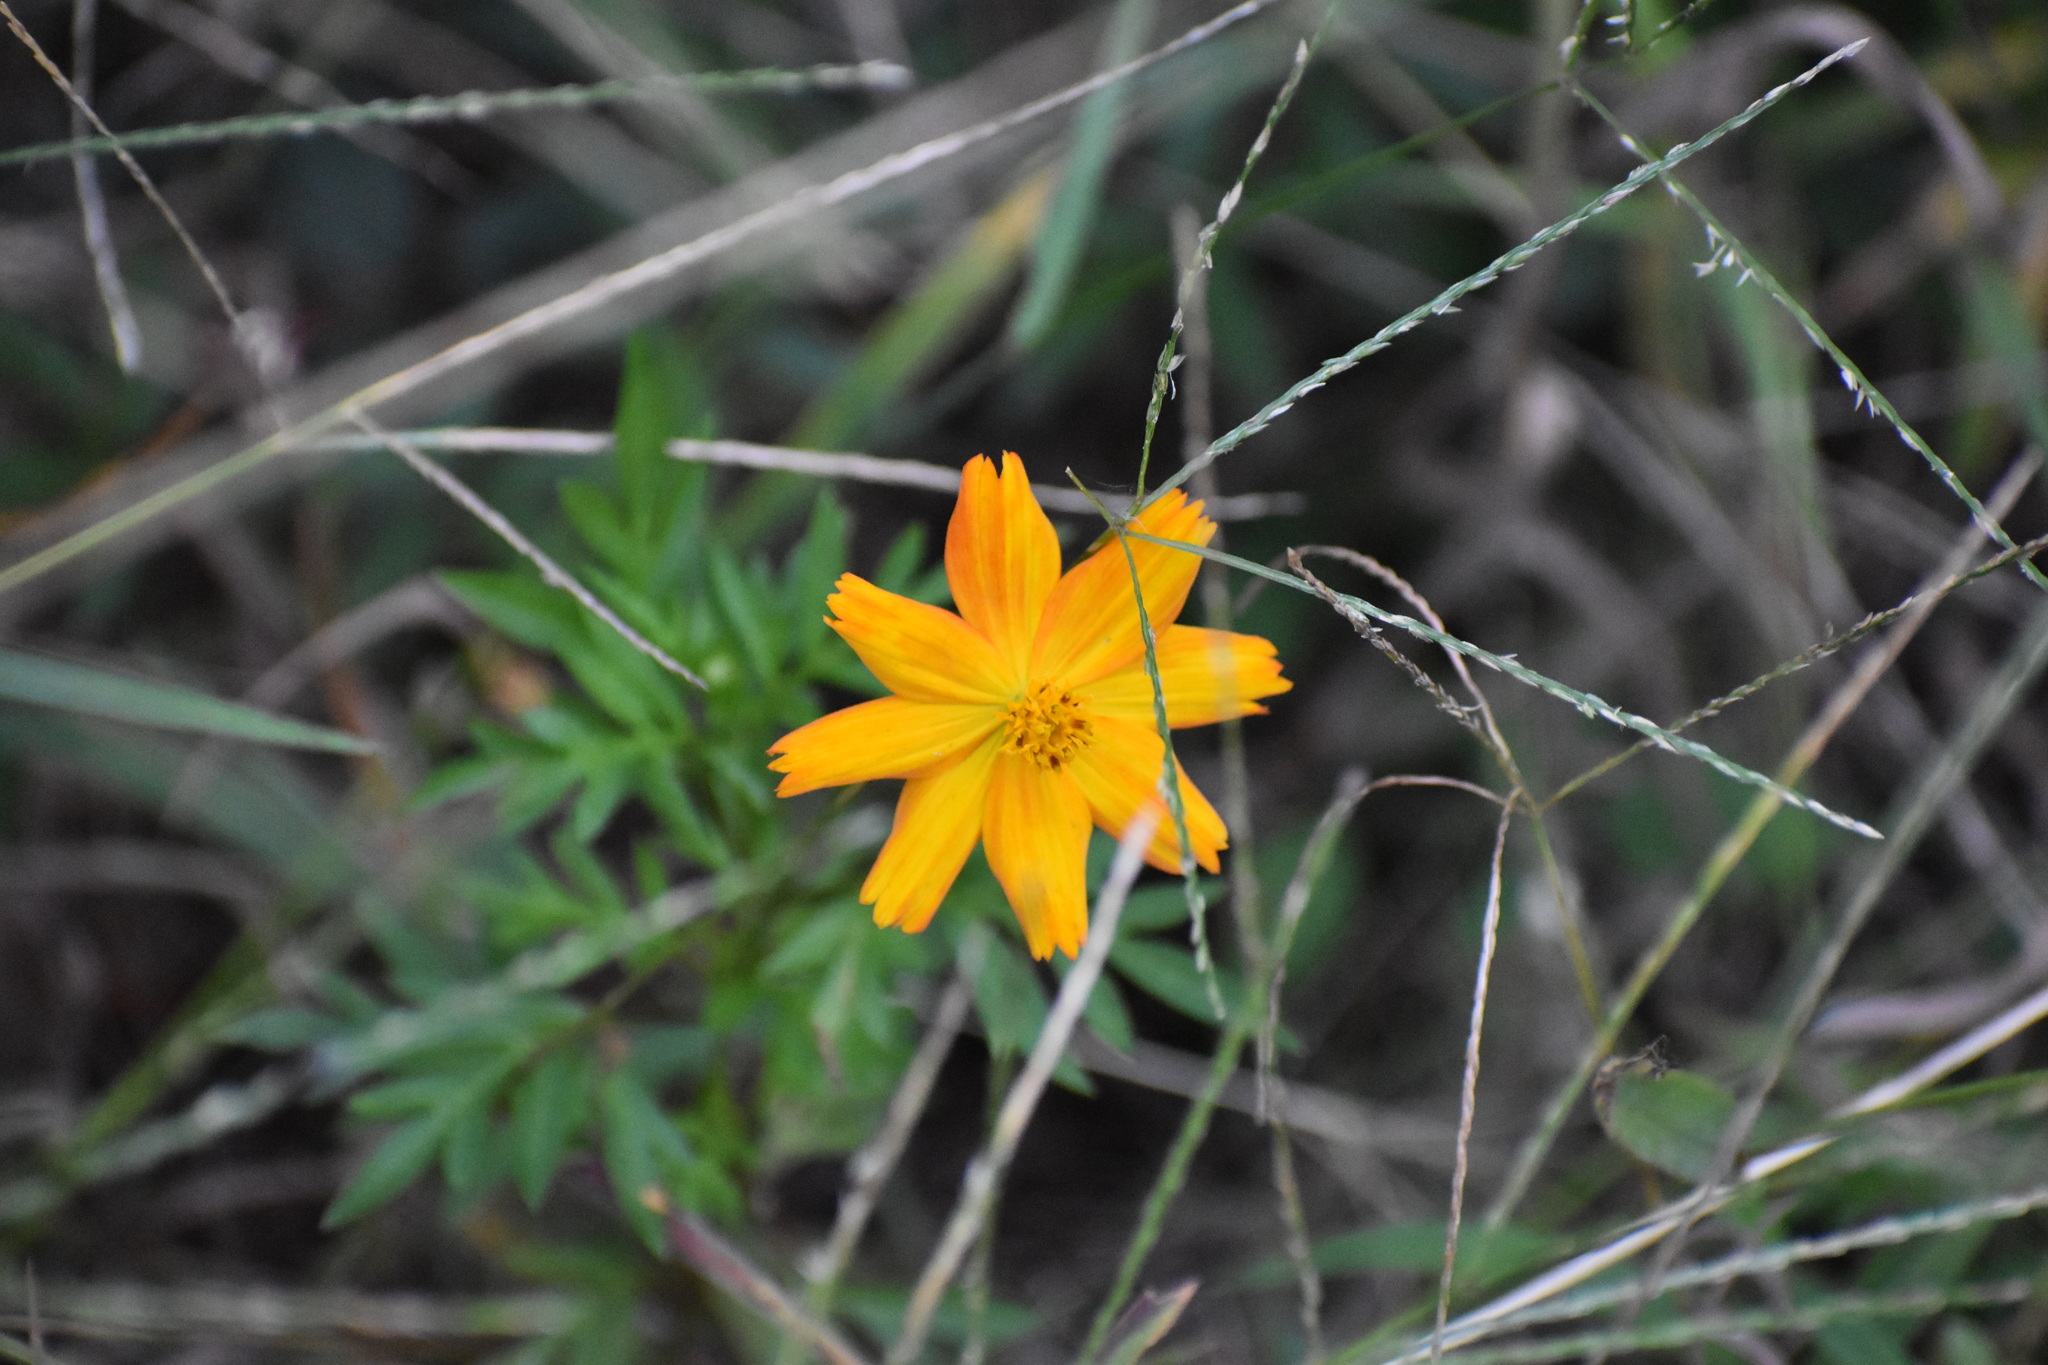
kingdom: Plantae
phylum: Tracheophyta
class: Magnoliopsida
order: Asterales
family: Asteraceae
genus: Cosmos
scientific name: Cosmos sulphureus
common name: Sulphur cosmos
